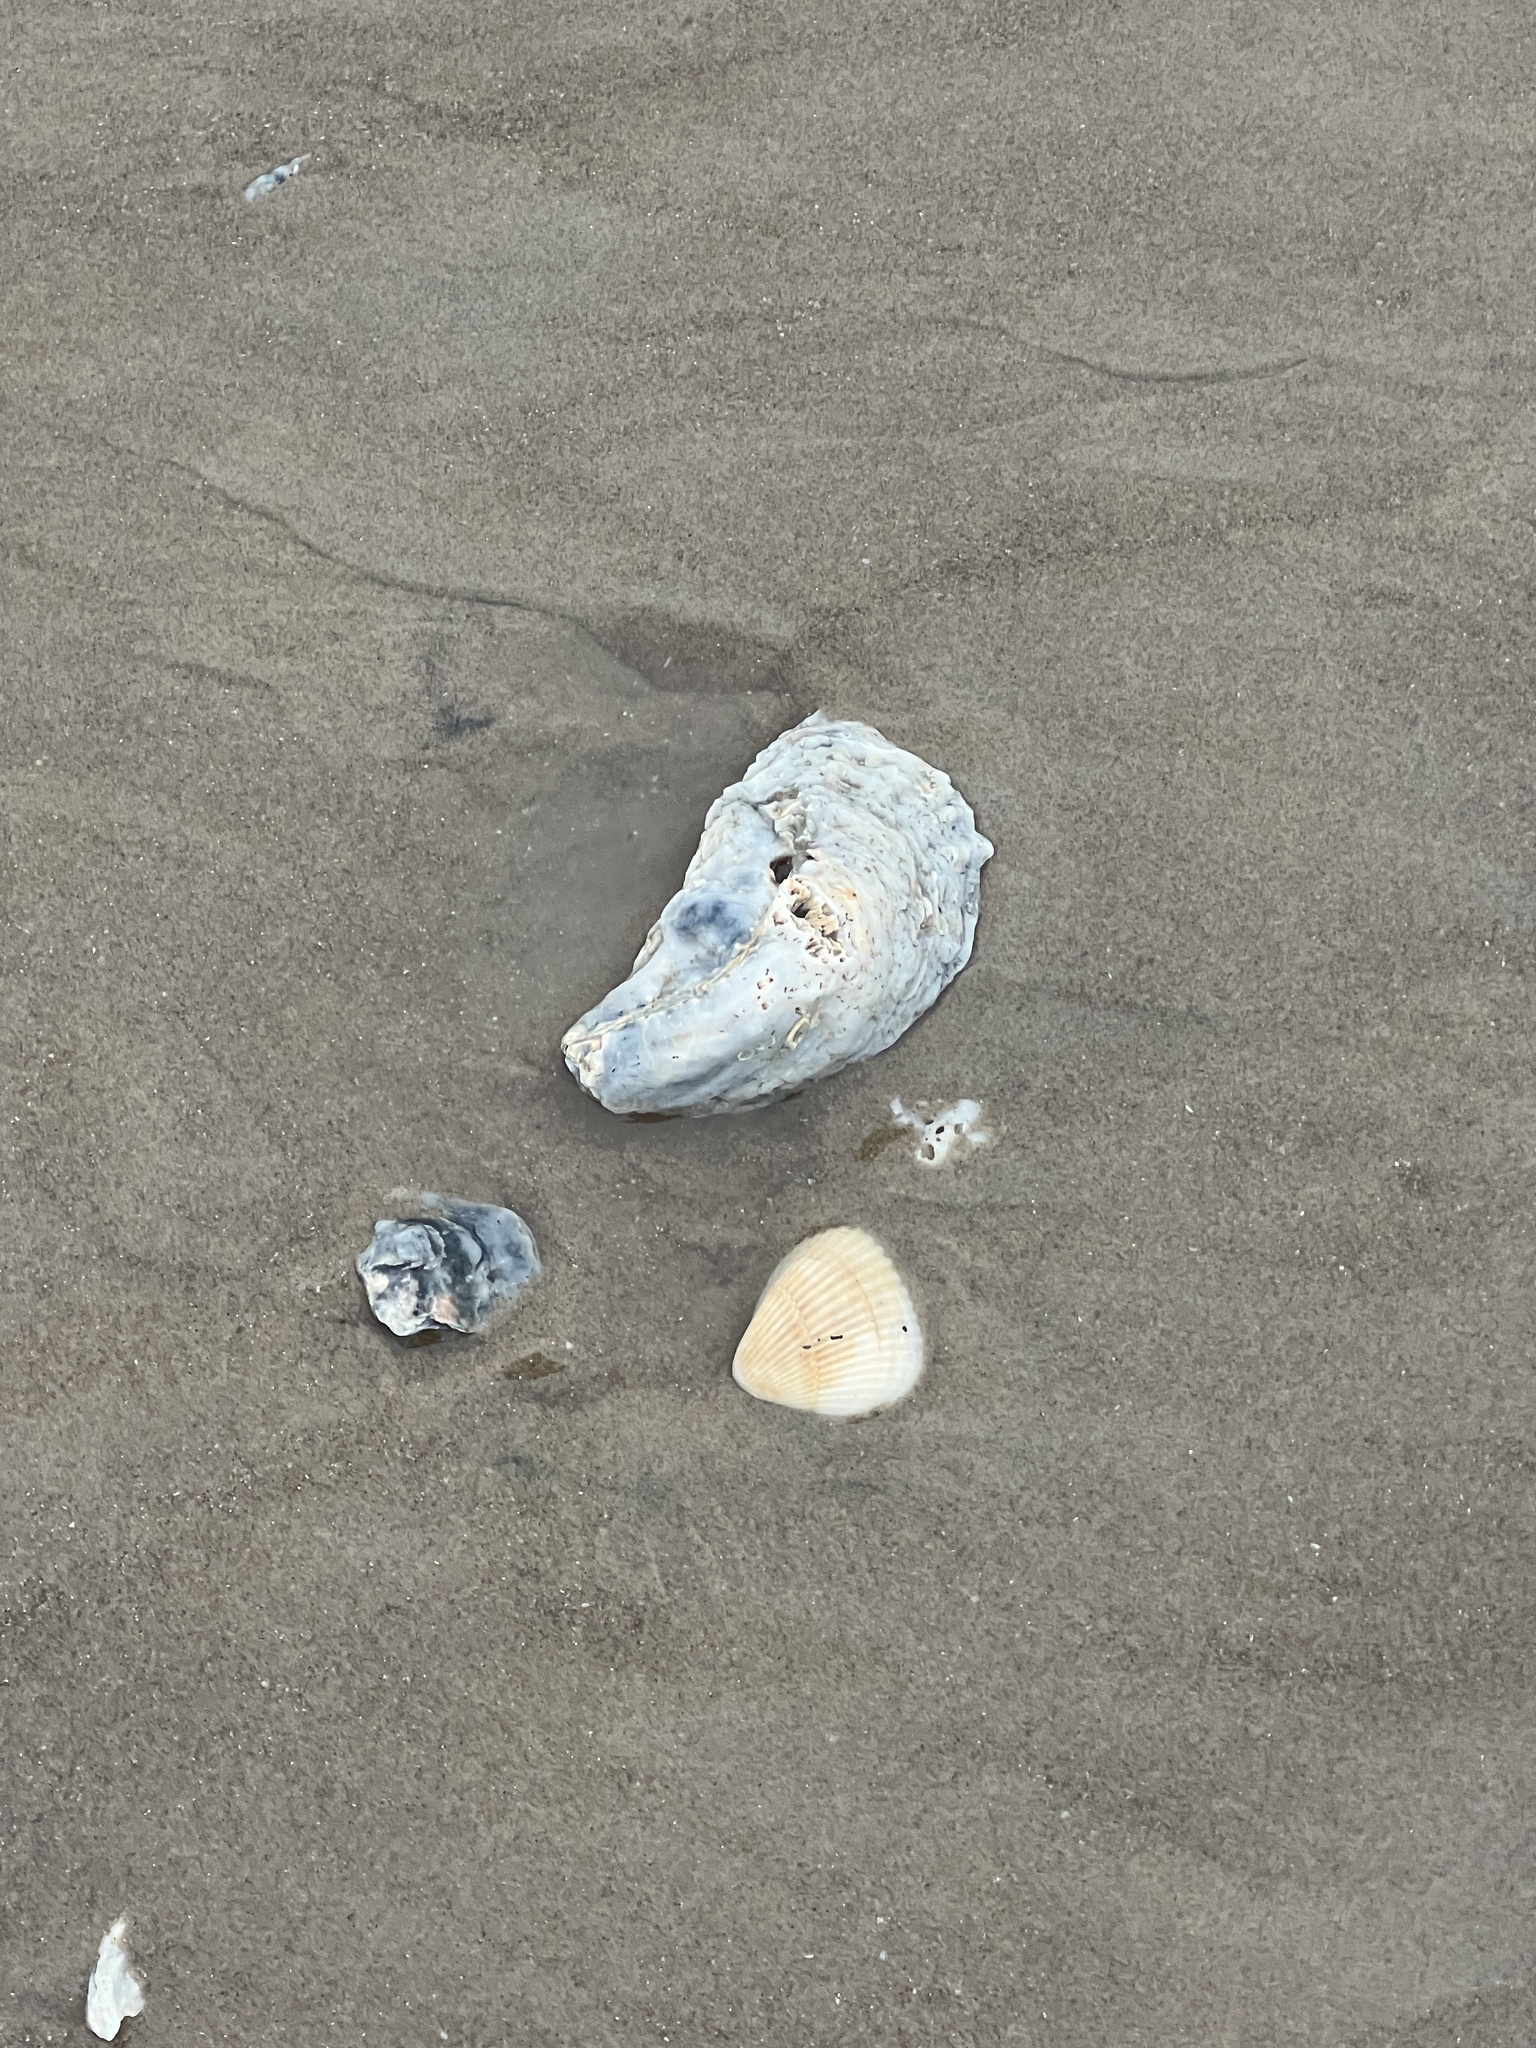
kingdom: Animalia
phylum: Mollusca
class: Bivalvia
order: Ostreida
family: Ostreidae
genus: Crassostrea
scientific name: Crassostrea virginica
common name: American oyster
